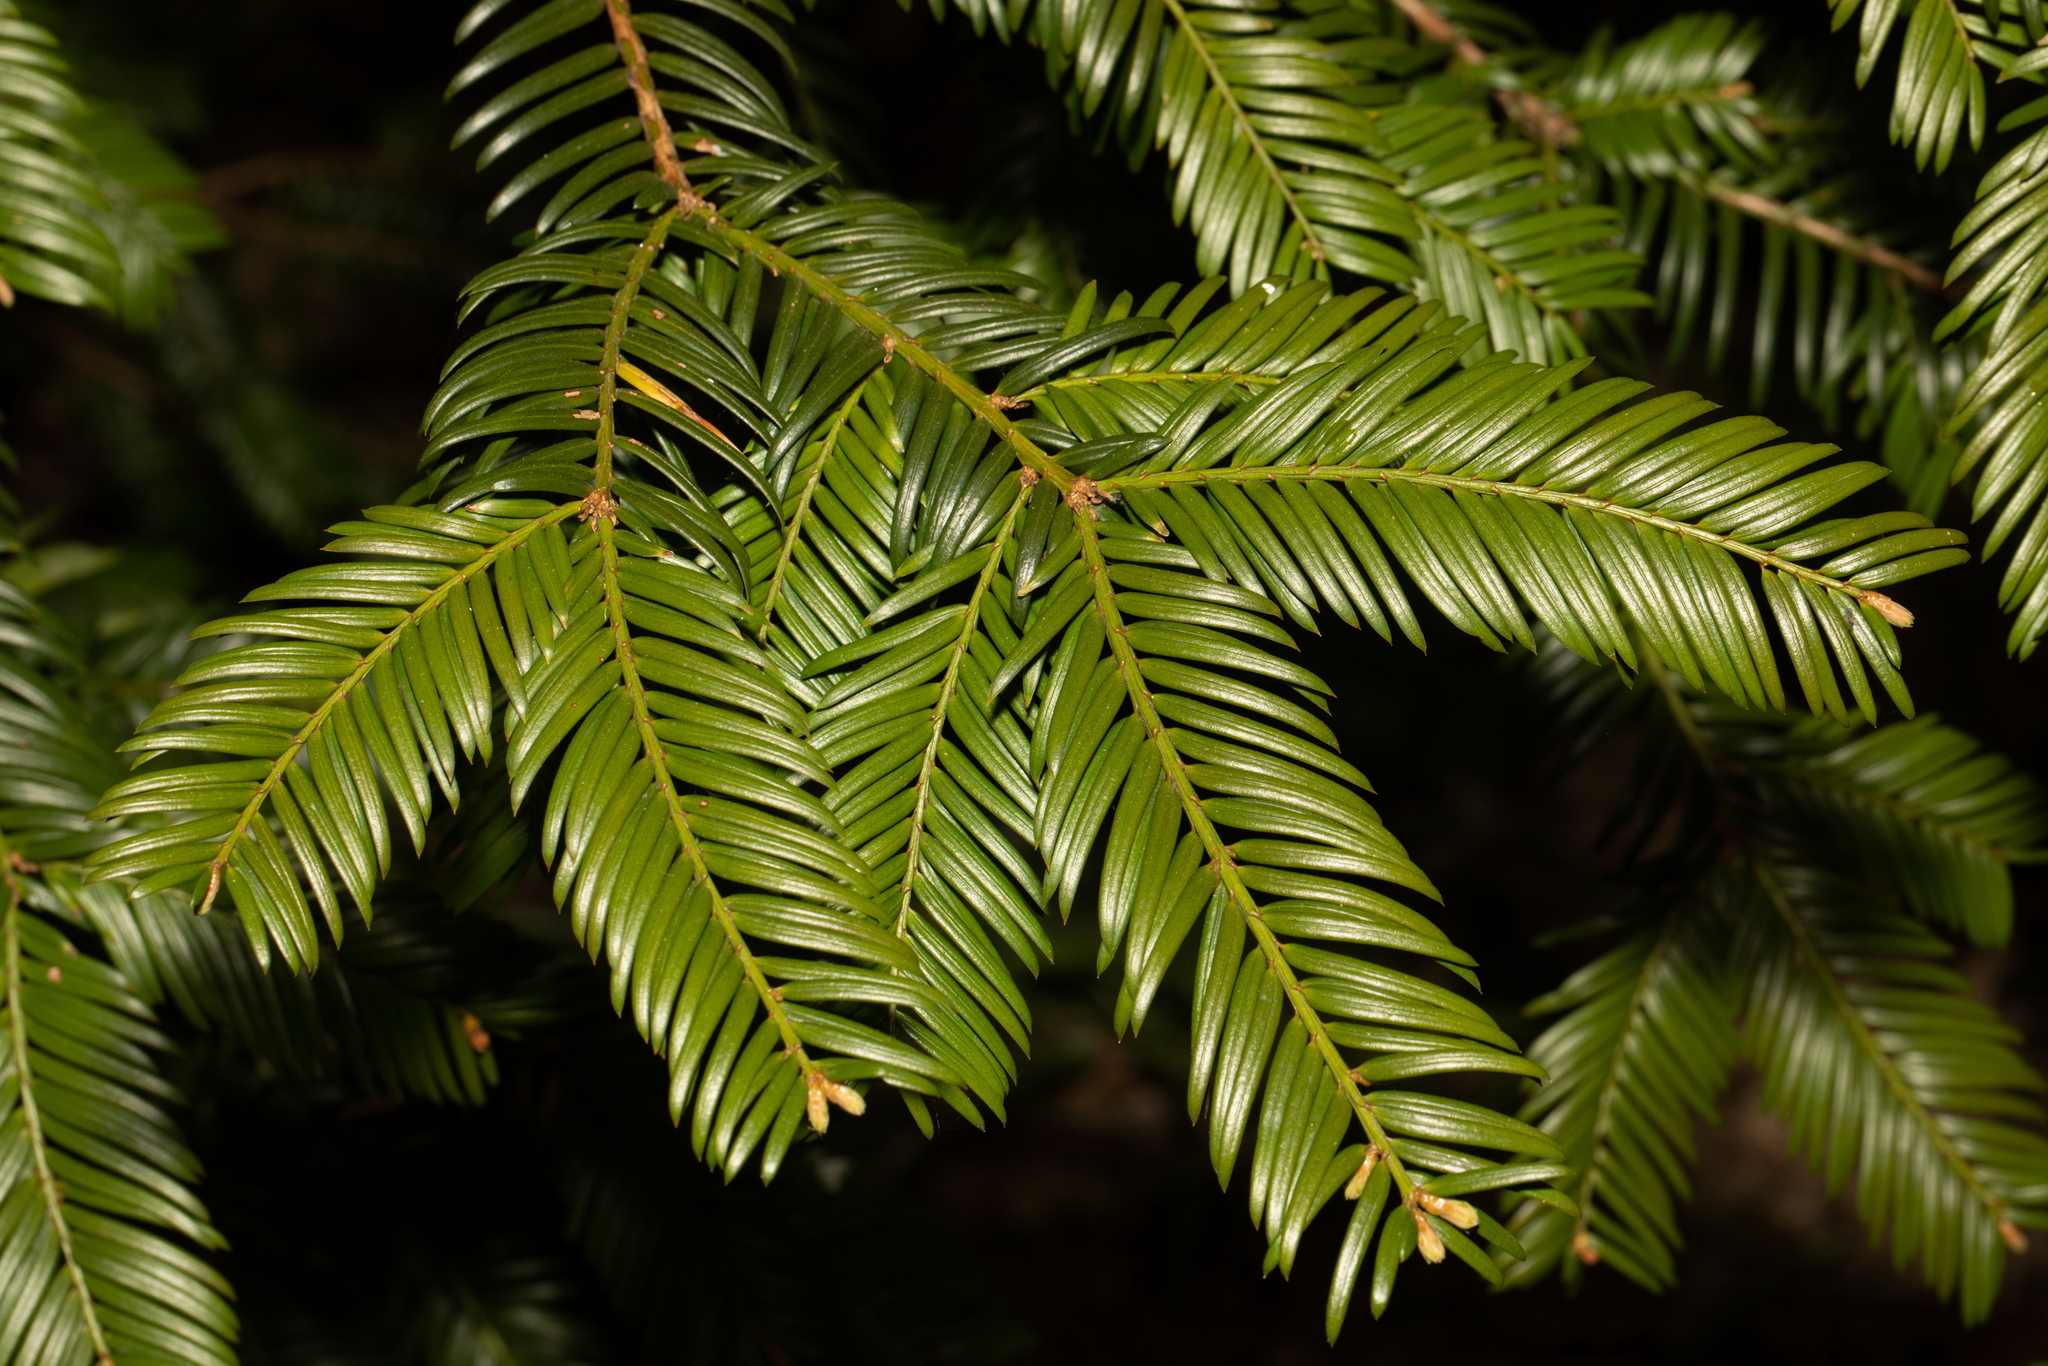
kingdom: Plantae
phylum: Tracheophyta
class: Pinopsida
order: Pinales
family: Taxaceae
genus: Taxus
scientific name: Taxus baccata
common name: Yew
